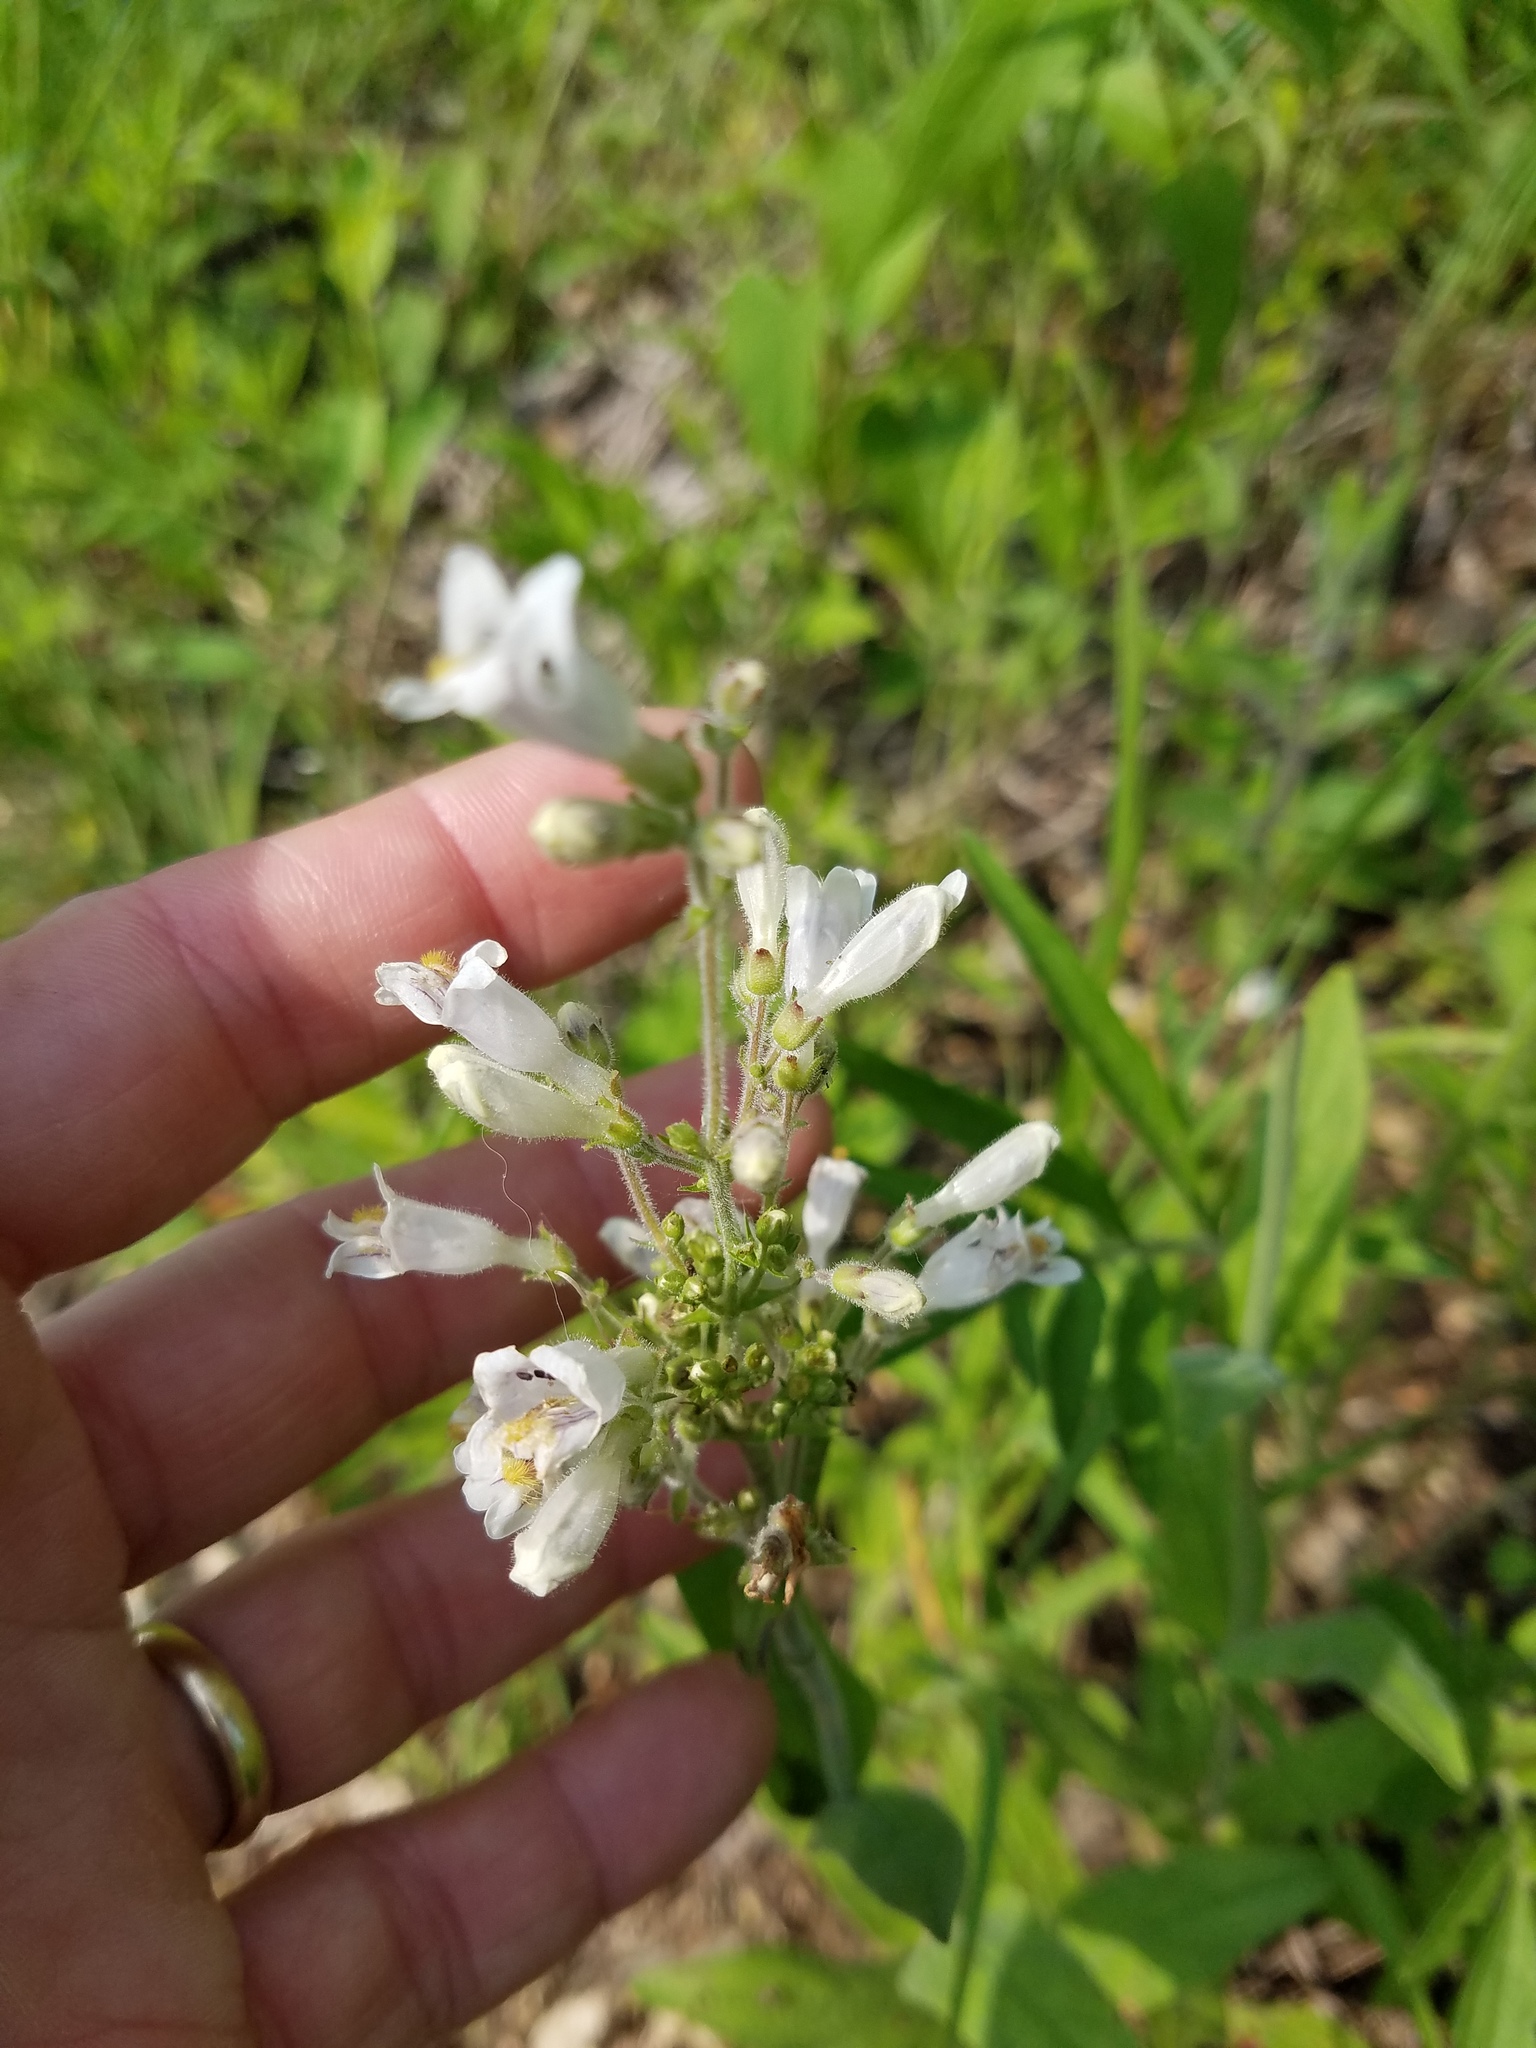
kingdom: Plantae
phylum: Tracheophyta
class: Magnoliopsida
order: Lamiales
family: Plantaginaceae
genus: Penstemon
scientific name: Penstemon pallidus
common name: Pale beardtongue
